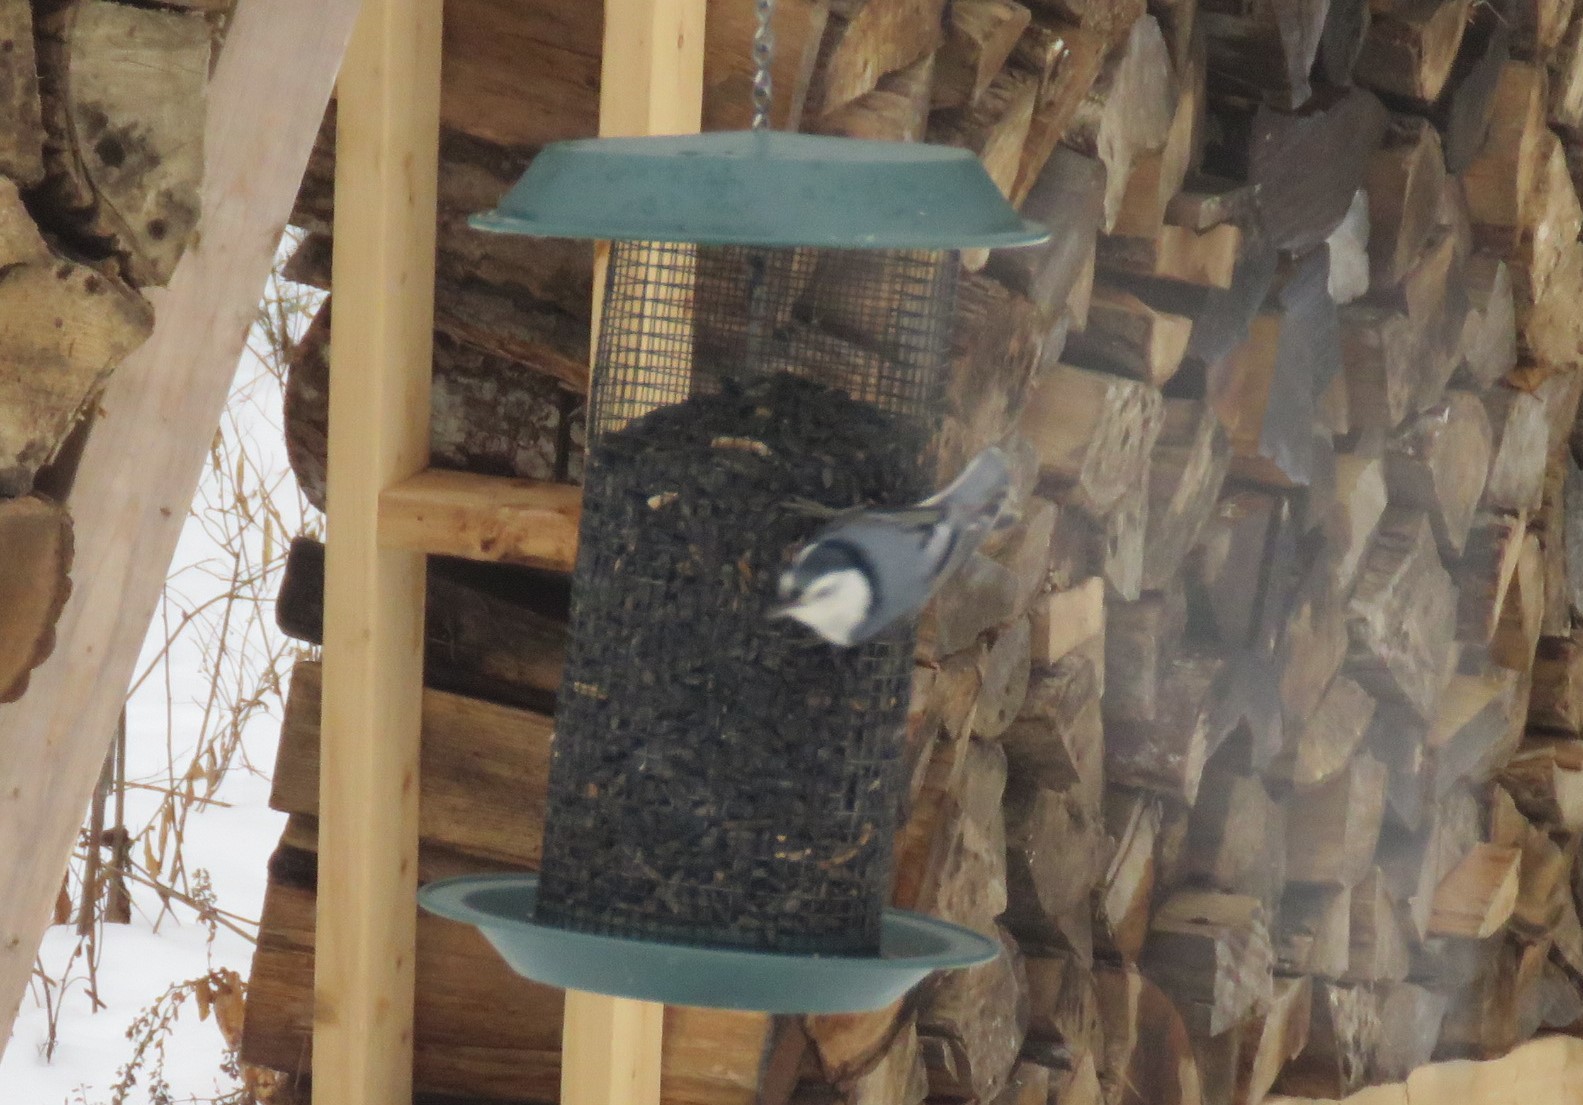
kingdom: Animalia
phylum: Chordata
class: Aves
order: Passeriformes
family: Sittidae
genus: Sitta
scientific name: Sitta carolinensis
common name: White-breasted nuthatch
